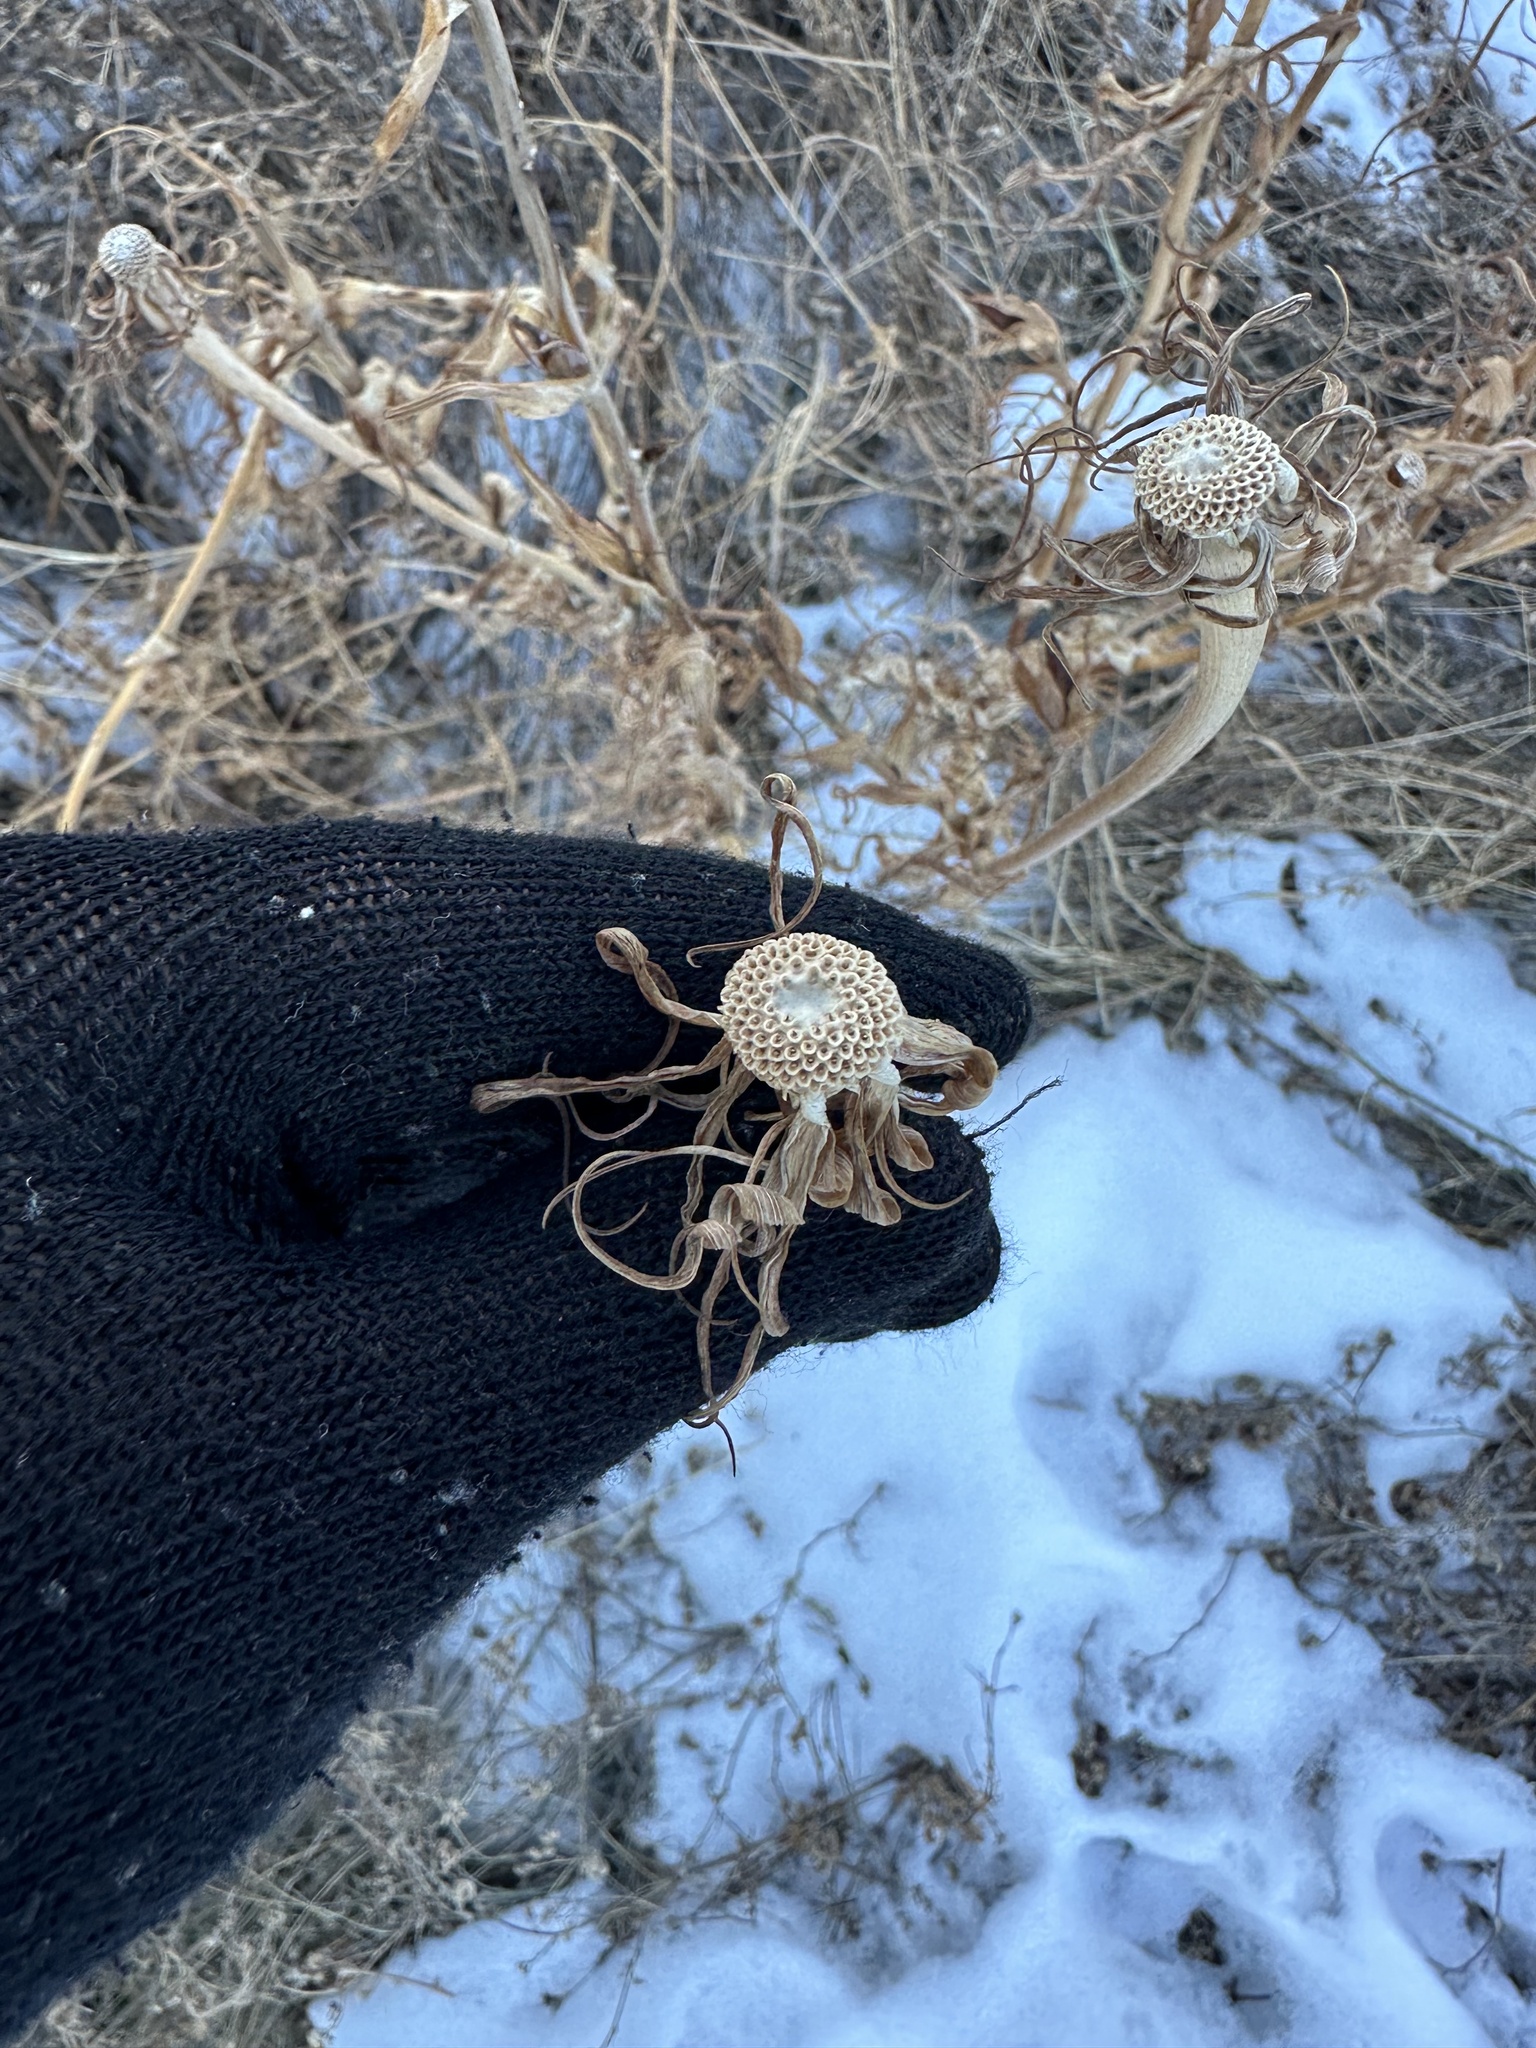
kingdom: Plantae
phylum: Tracheophyta
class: Magnoliopsida
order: Asterales
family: Asteraceae
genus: Tragopogon
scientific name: Tragopogon dubius
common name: Yellow salsify
